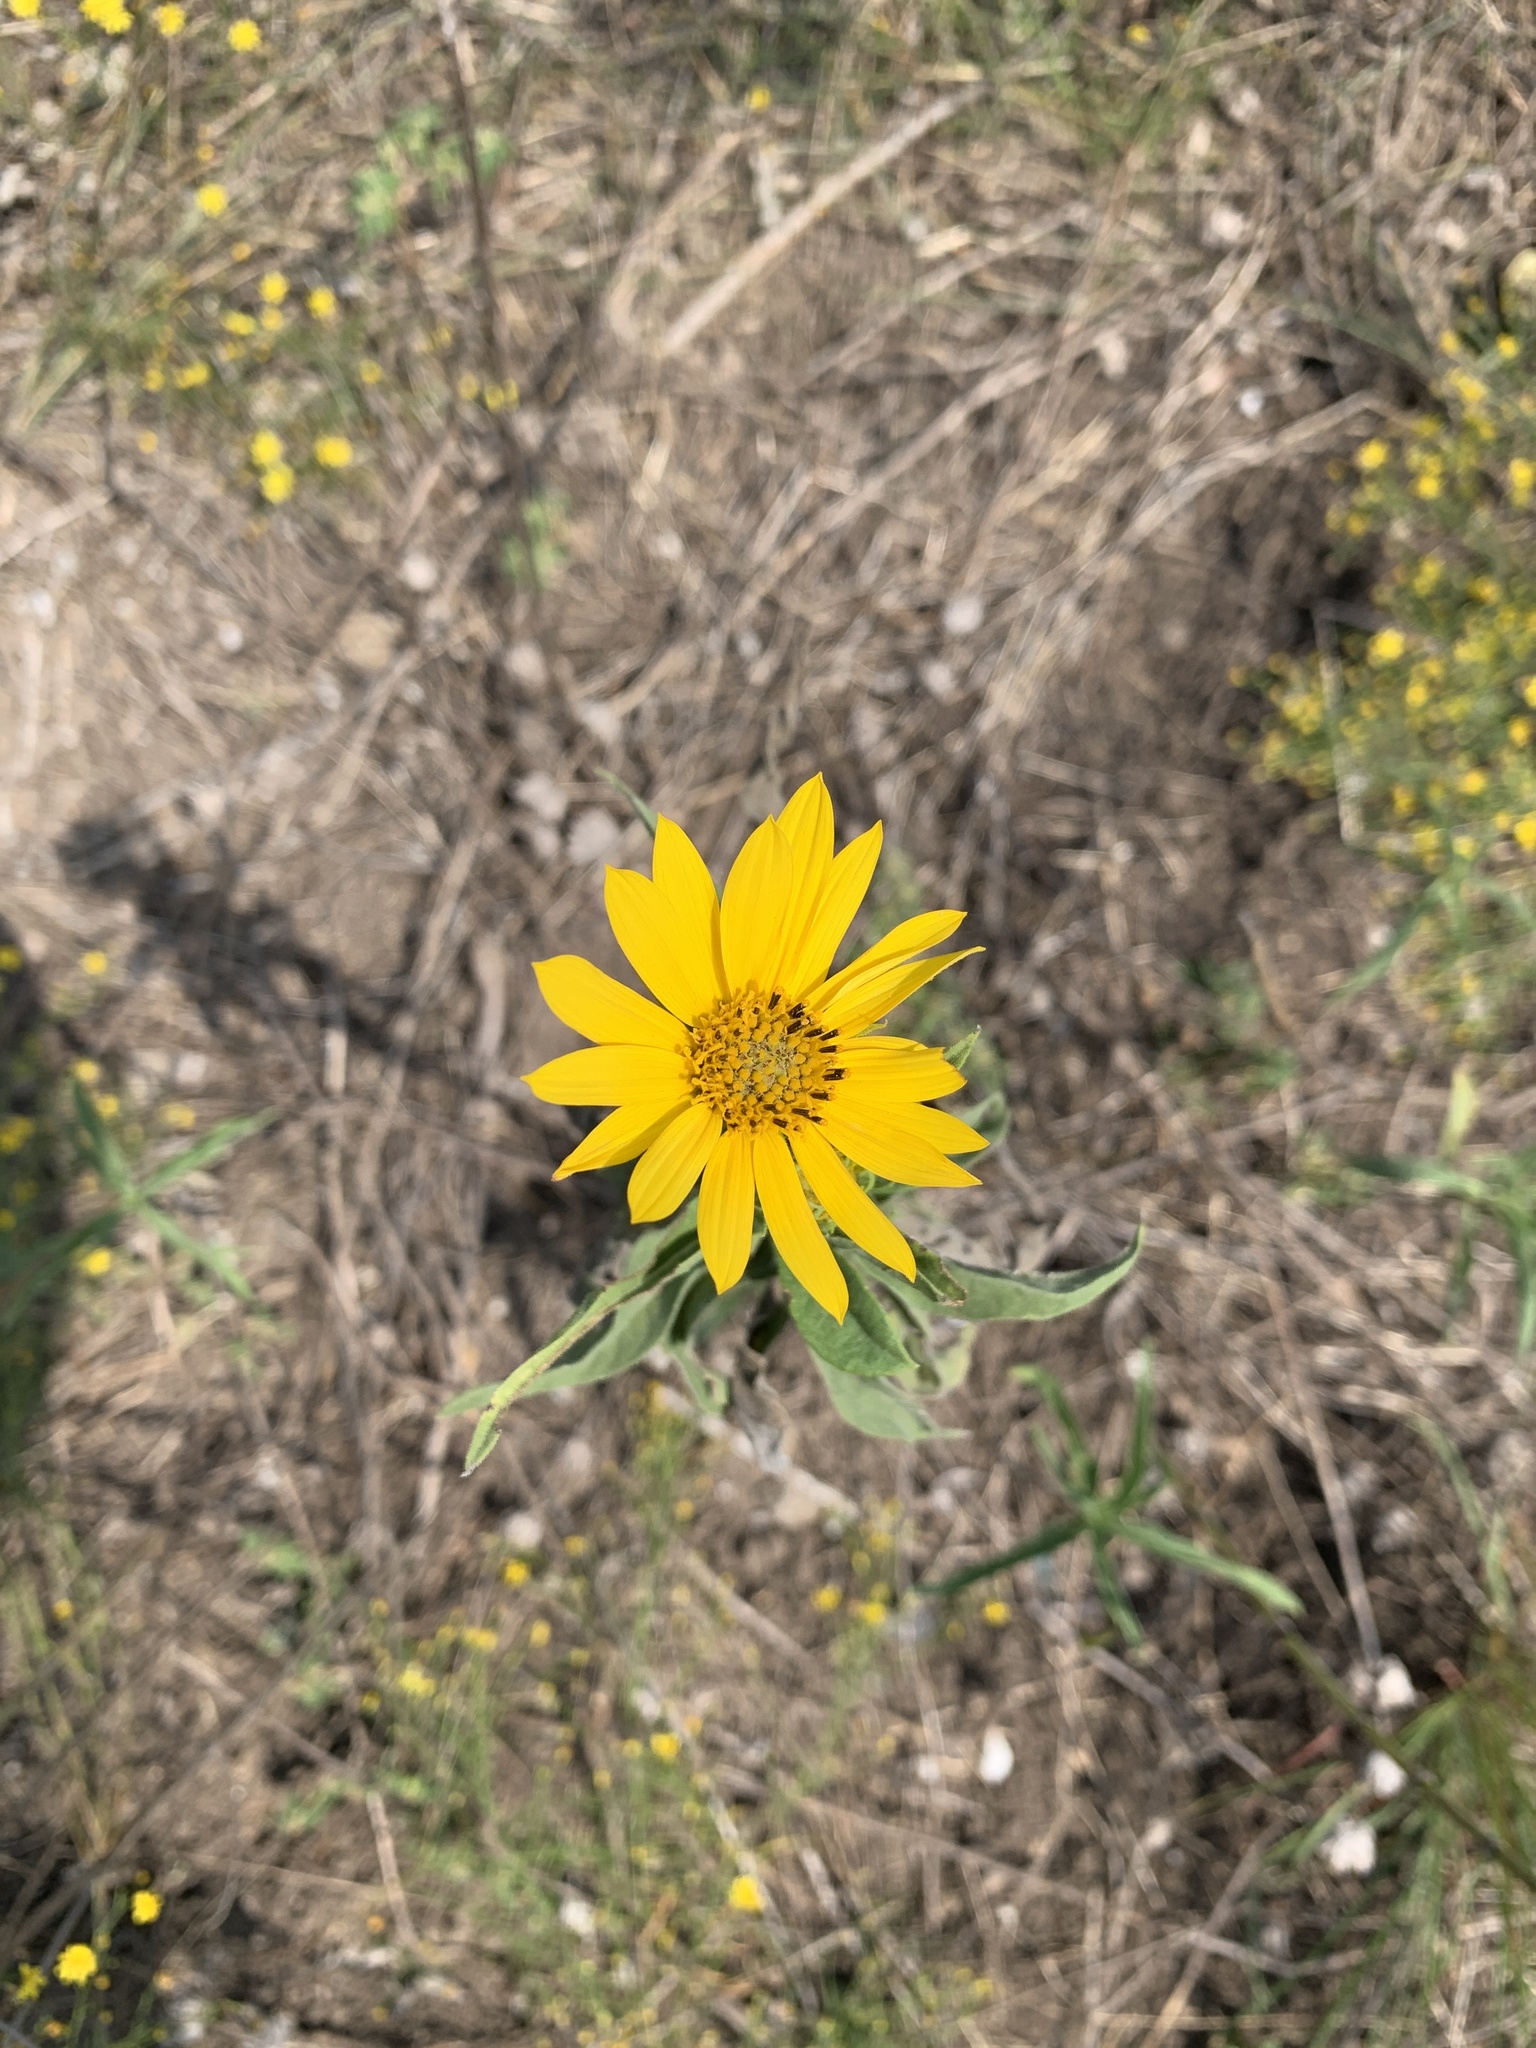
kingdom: Plantae
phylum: Tracheophyta
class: Magnoliopsida
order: Asterales
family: Asteraceae
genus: Helianthus
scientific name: Helianthus maximiliani
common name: Maximilian's sunflower
